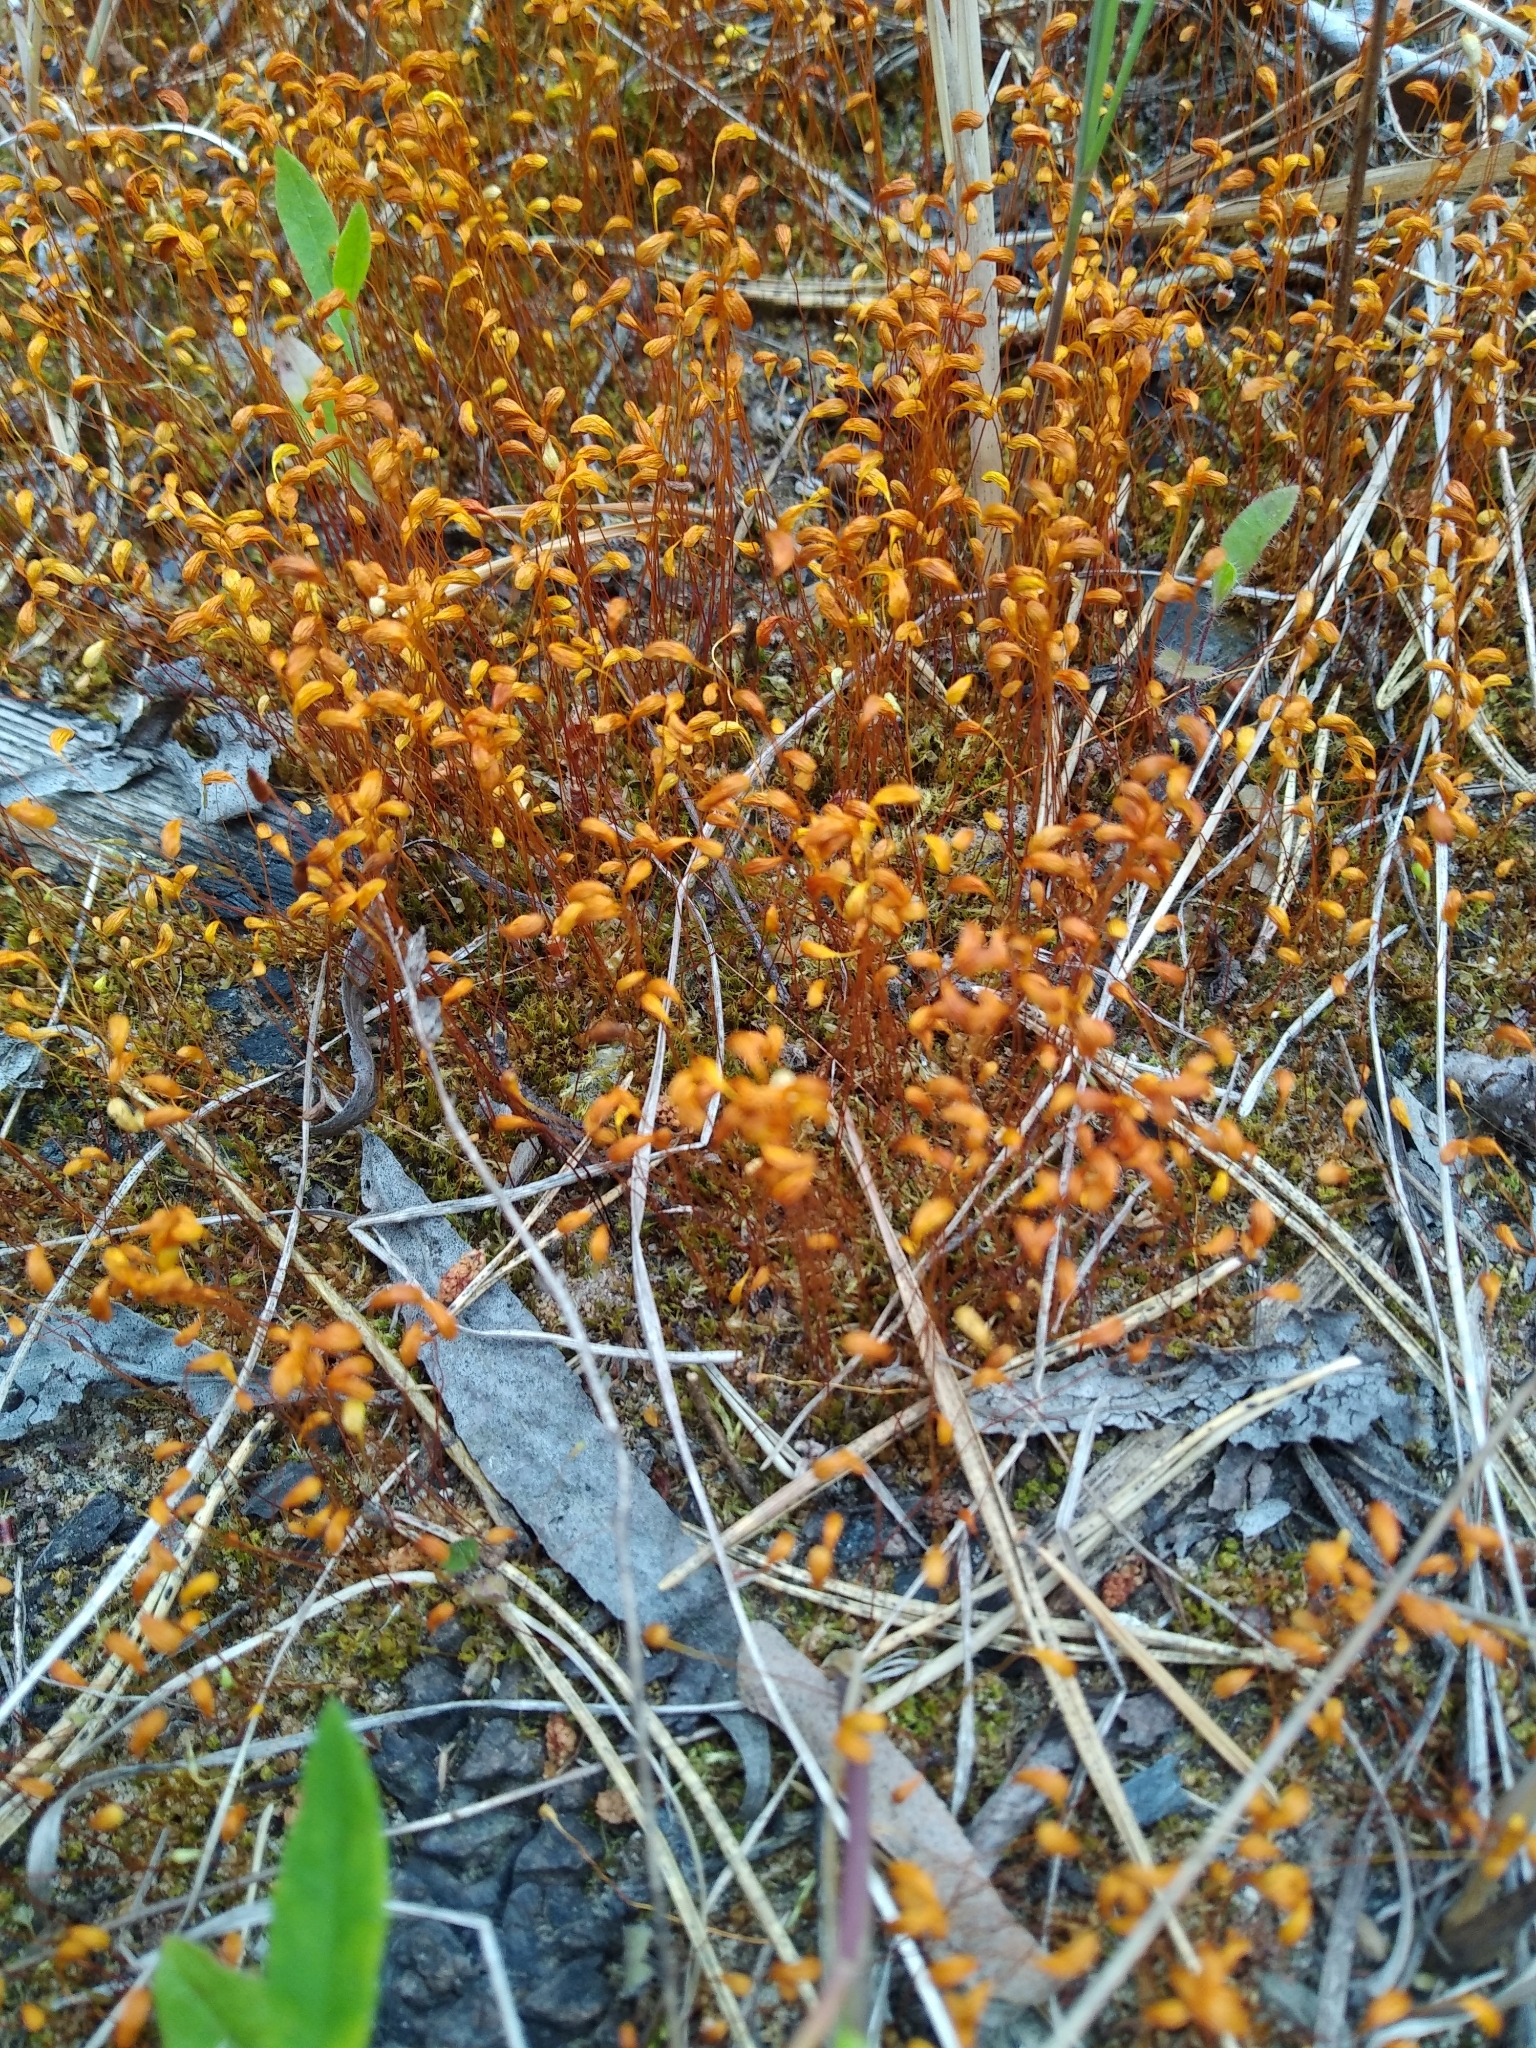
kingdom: Plantae
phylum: Bryophyta
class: Bryopsida
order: Funariales
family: Funariaceae
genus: Funaria
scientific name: Funaria hygrometrica
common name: Common cord moss
